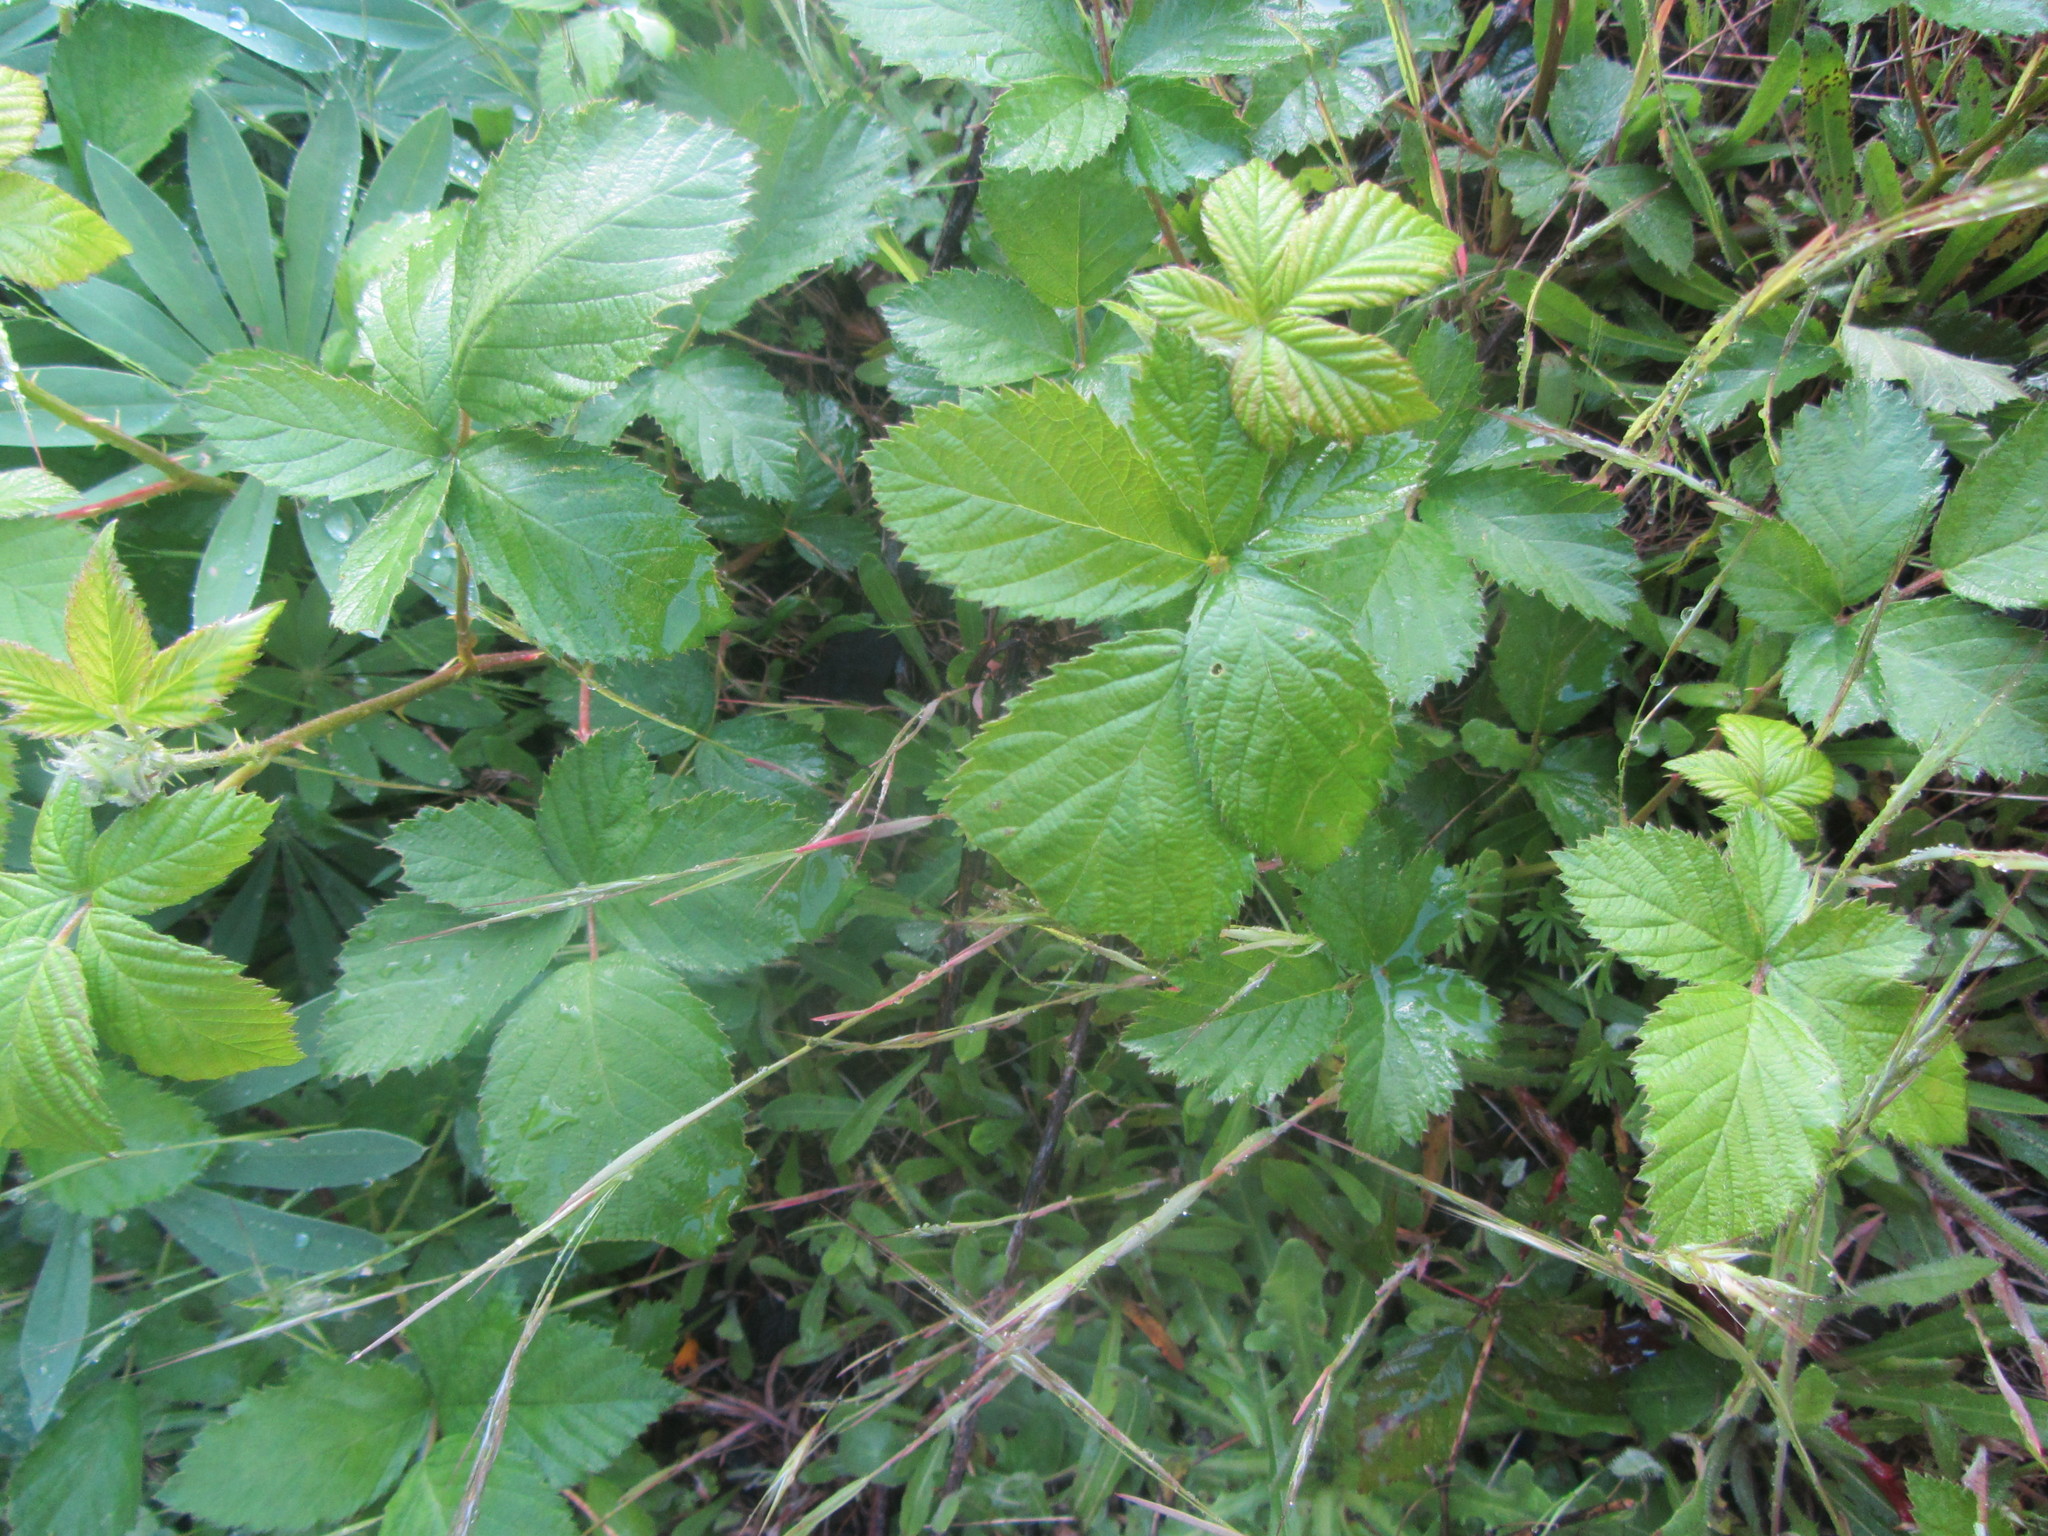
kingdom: Plantae
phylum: Tracheophyta
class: Magnoliopsida
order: Rosales
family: Rosaceae
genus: Rubus
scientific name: Rubus bifrons
